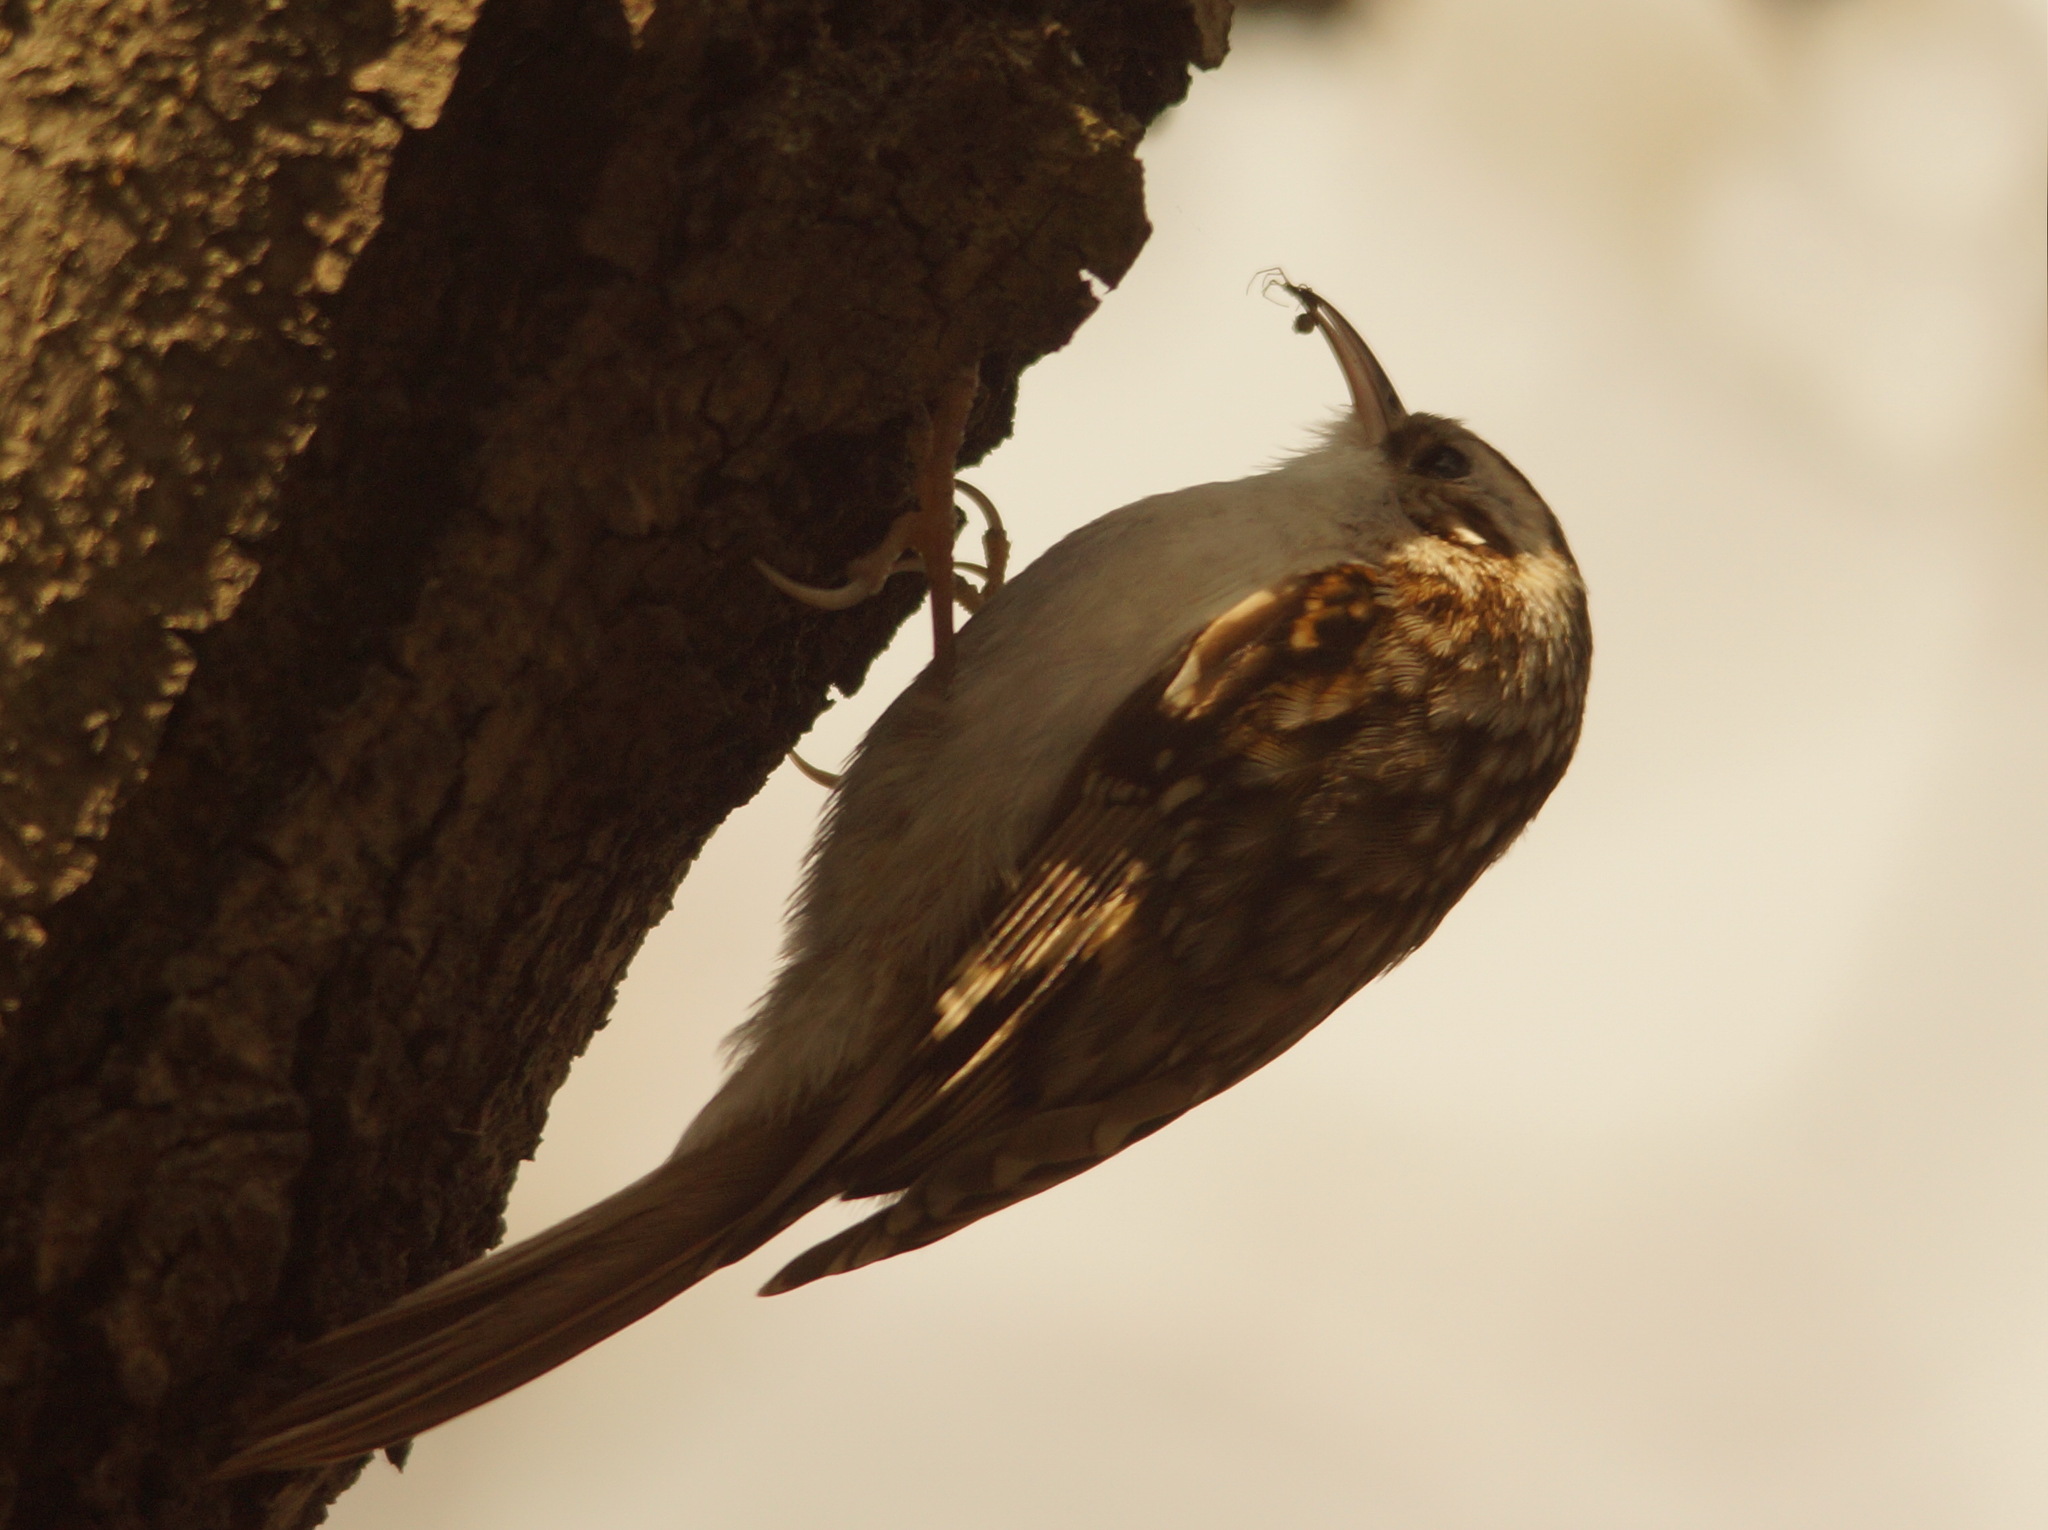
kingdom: Animalia
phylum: Chordata
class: Aves
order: Passeriformes
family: Certhiidae
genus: Certhia
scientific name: Certhia familiaris
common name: Eurasian treecreeper
